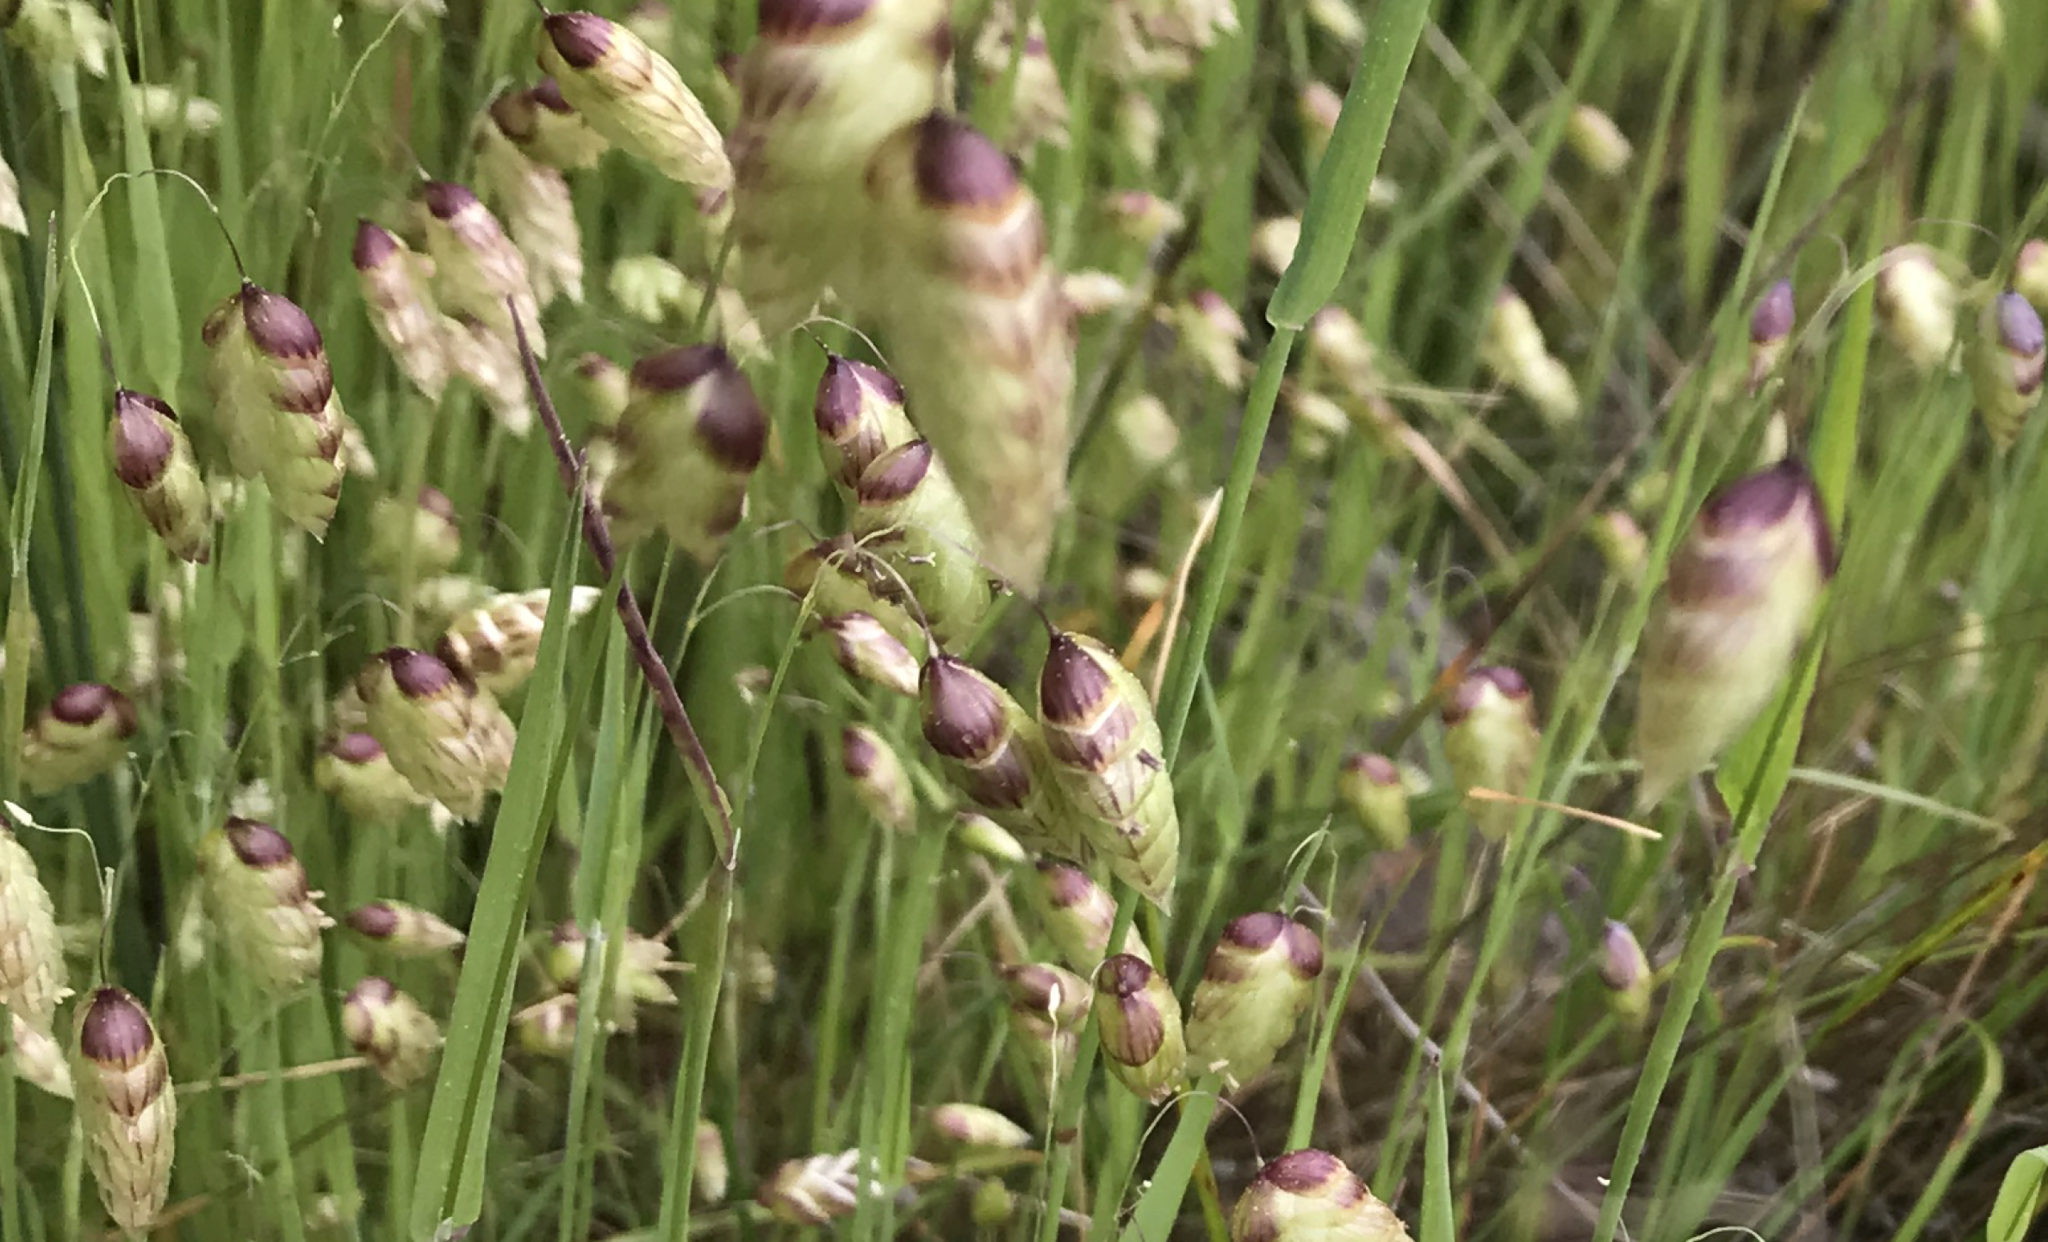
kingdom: Plantae
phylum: Tracheophyta
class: Liliopsida
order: Poales
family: Poaceae
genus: Briza
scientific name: Briza maxima
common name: Big quakinggrass
